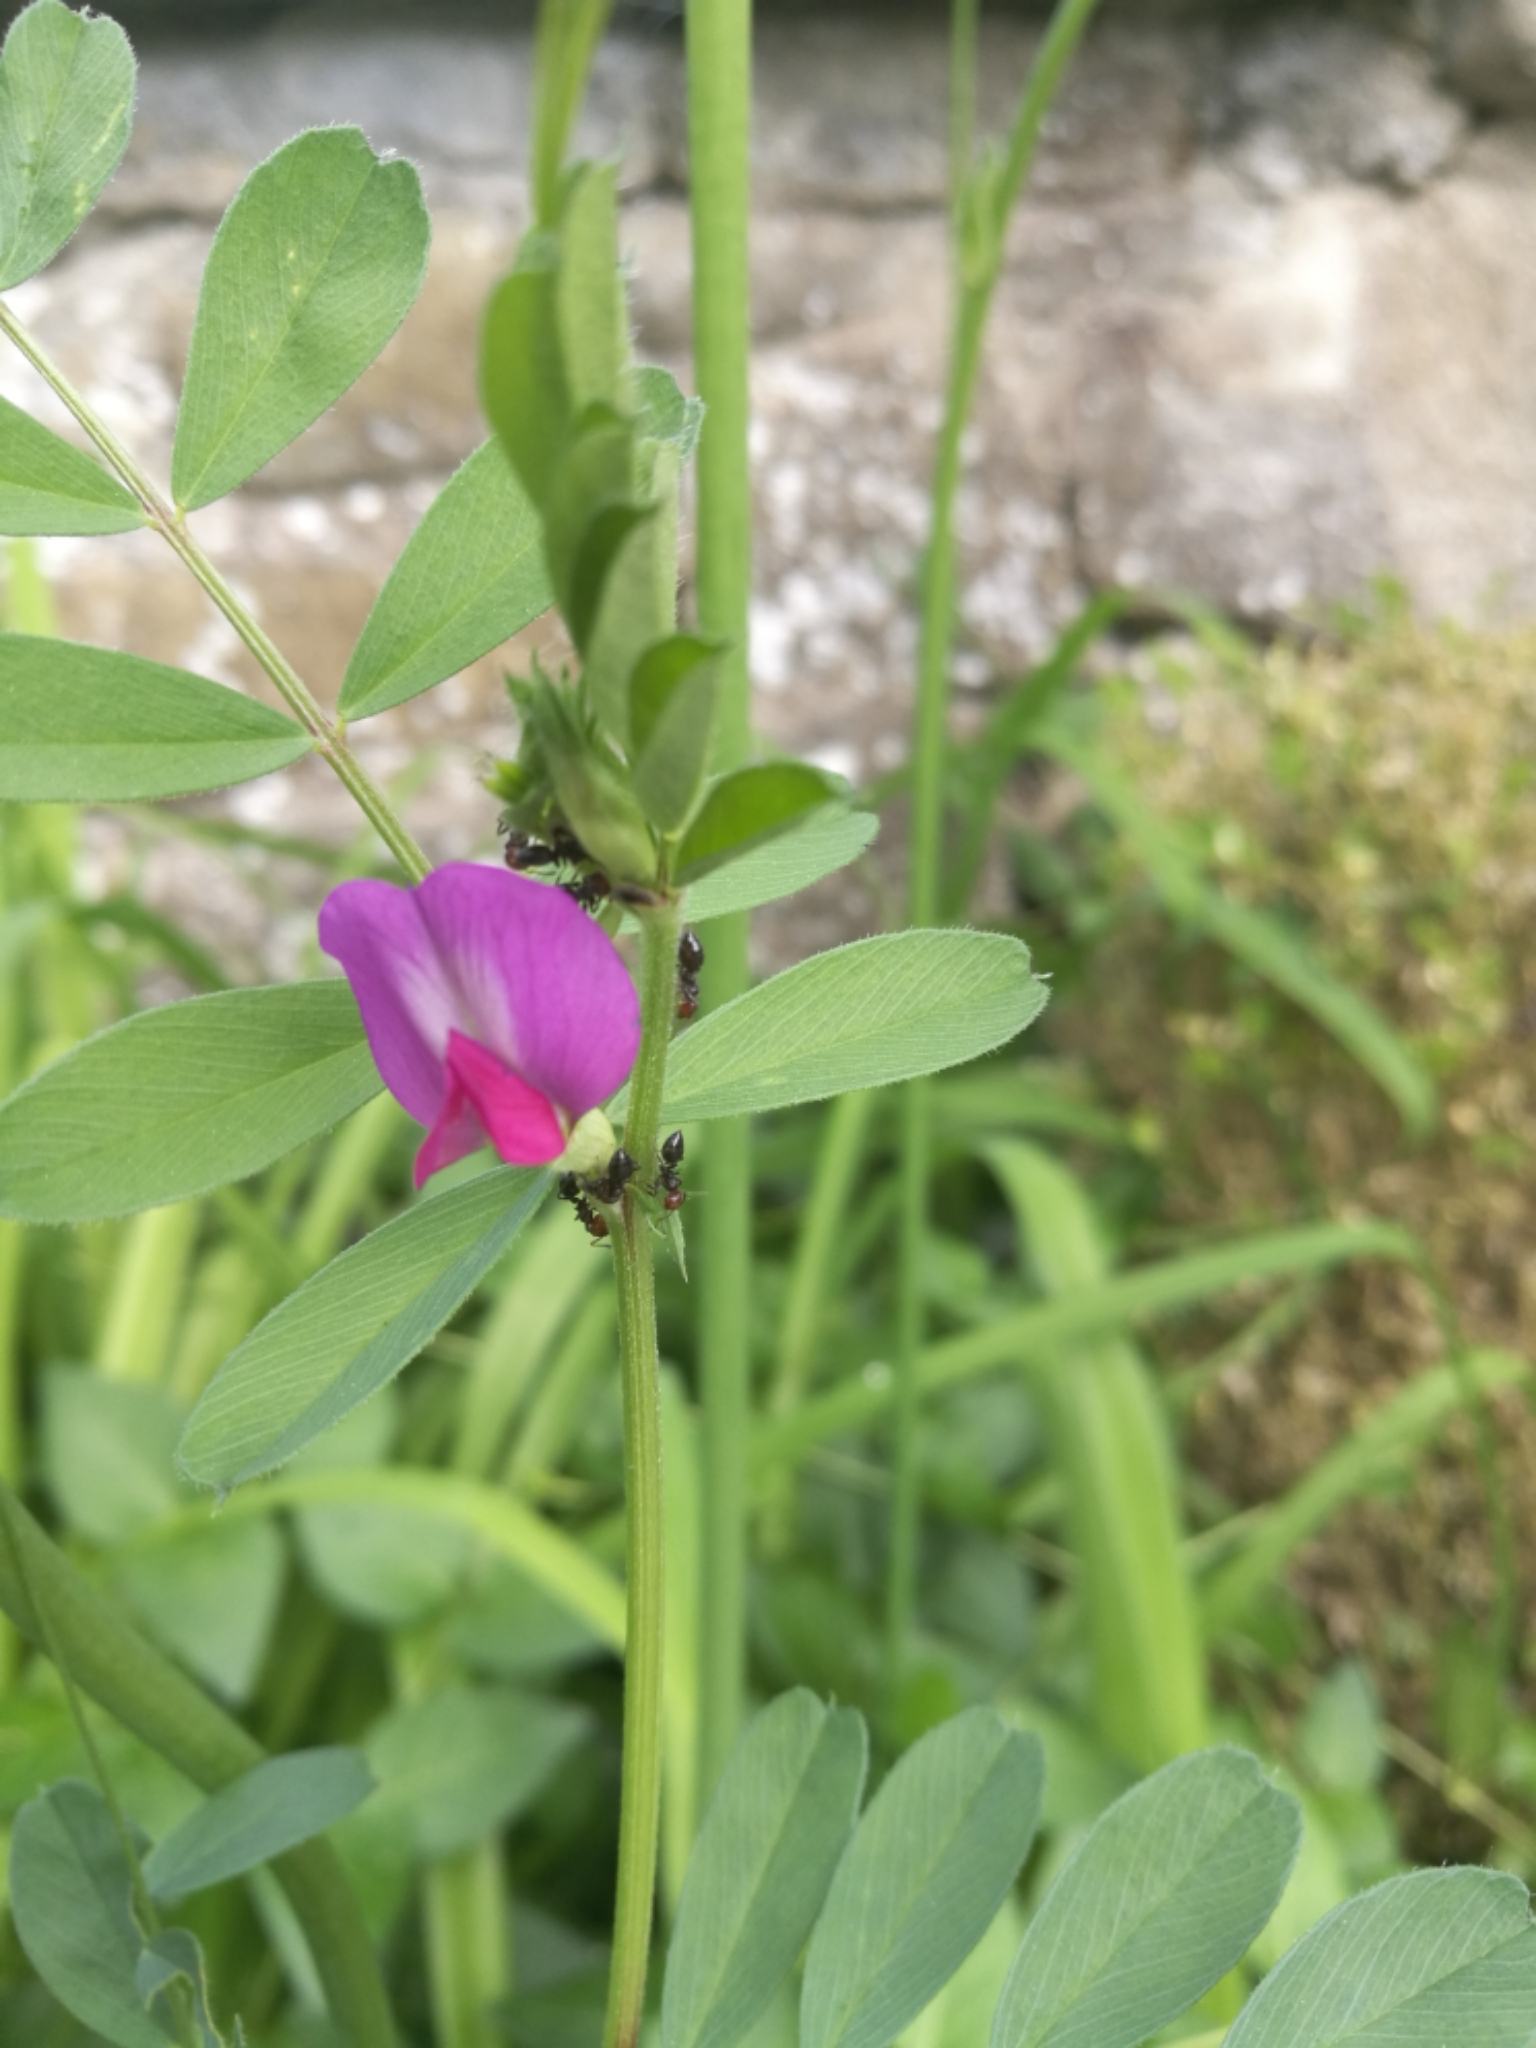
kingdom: Animalia
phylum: Arthropoda
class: Insecta
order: Hymenoptera
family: Formicidae
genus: Crematogaster
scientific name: Crematogaster scutellaris
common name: Fourmi du liège
